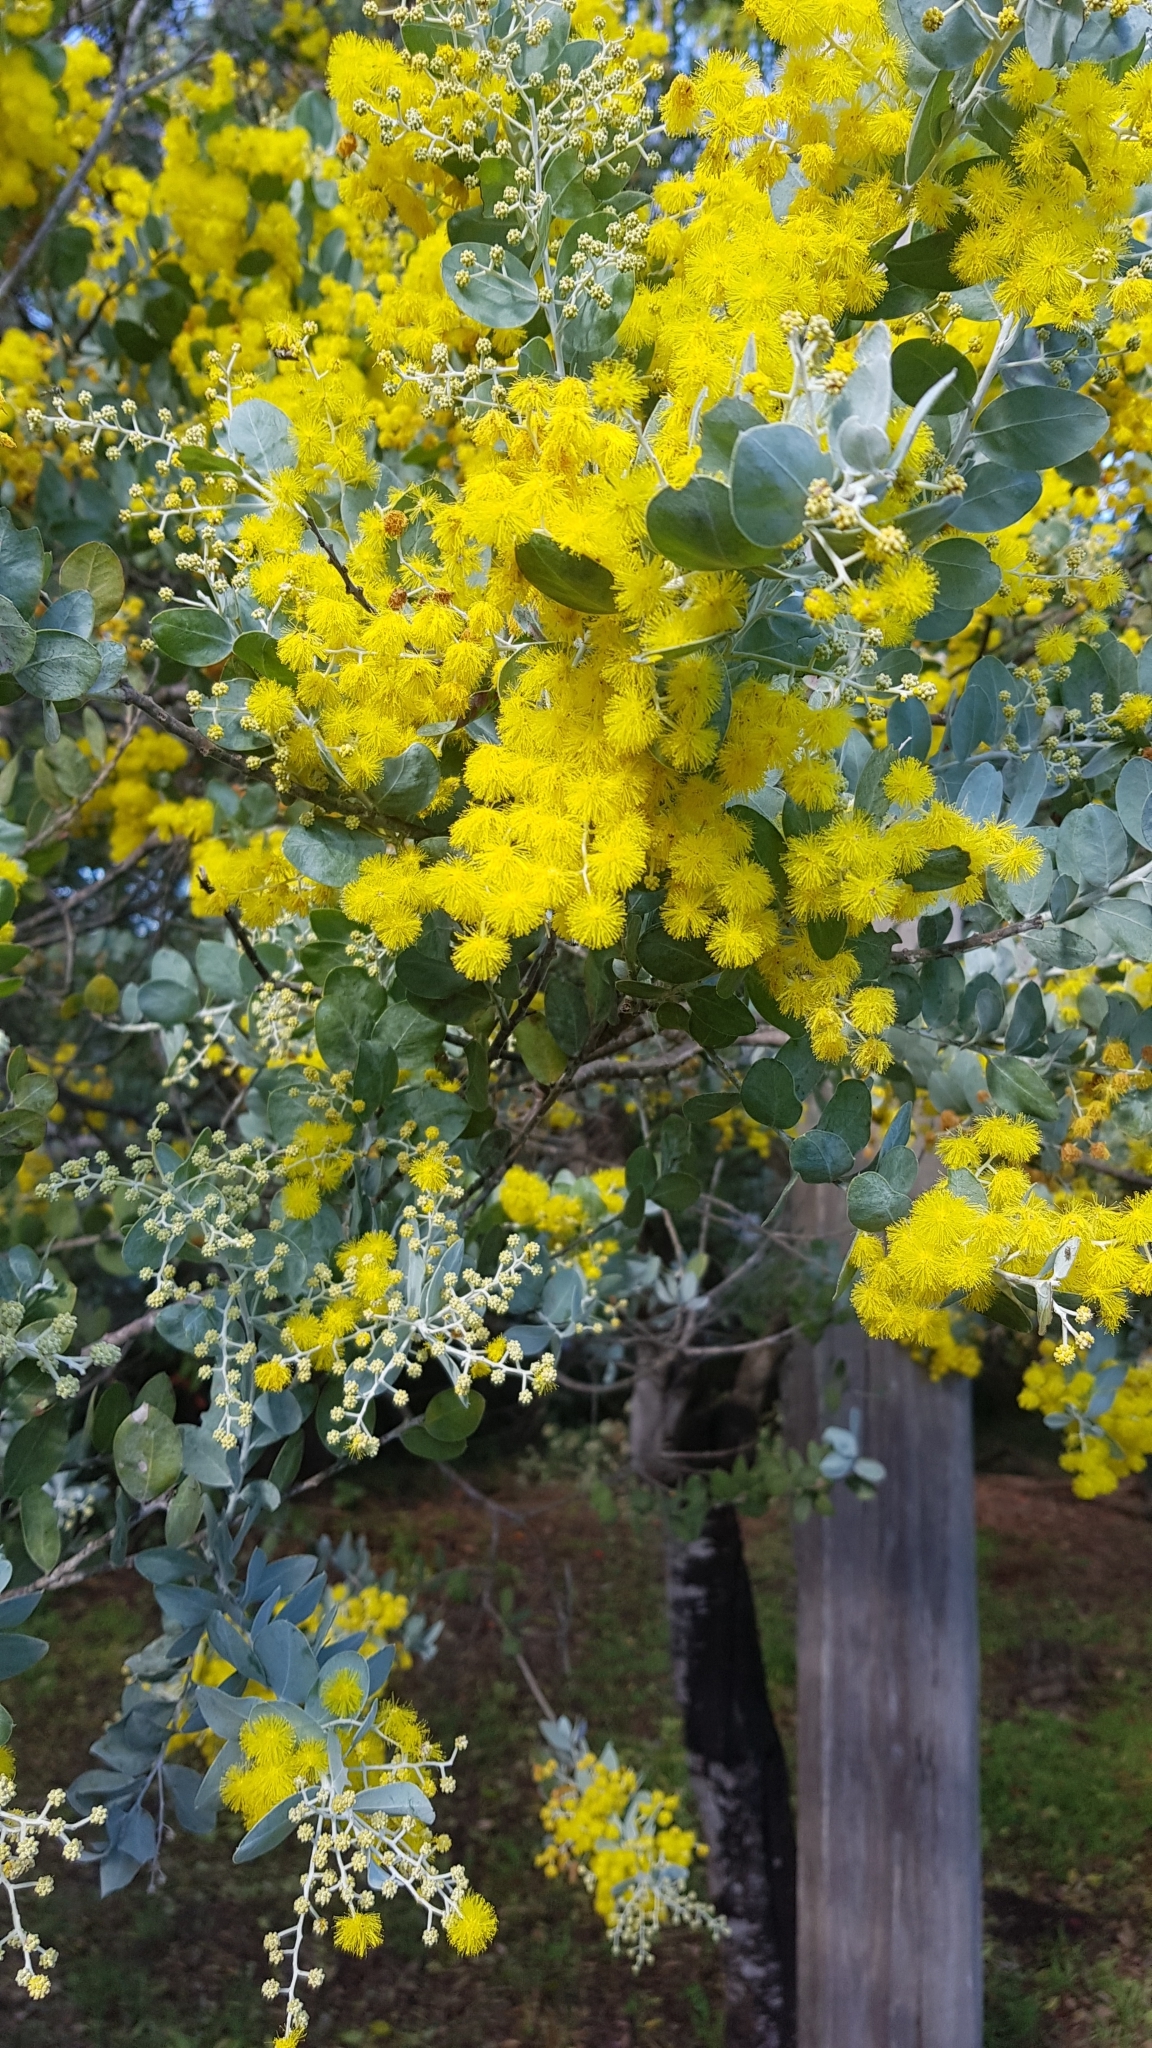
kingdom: Plantae
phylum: Tracheophyta
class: Magnoliopsida
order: Fabales
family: Fabaceae
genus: Acacia
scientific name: Acacia podalyriifolia
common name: Pearl wattle
